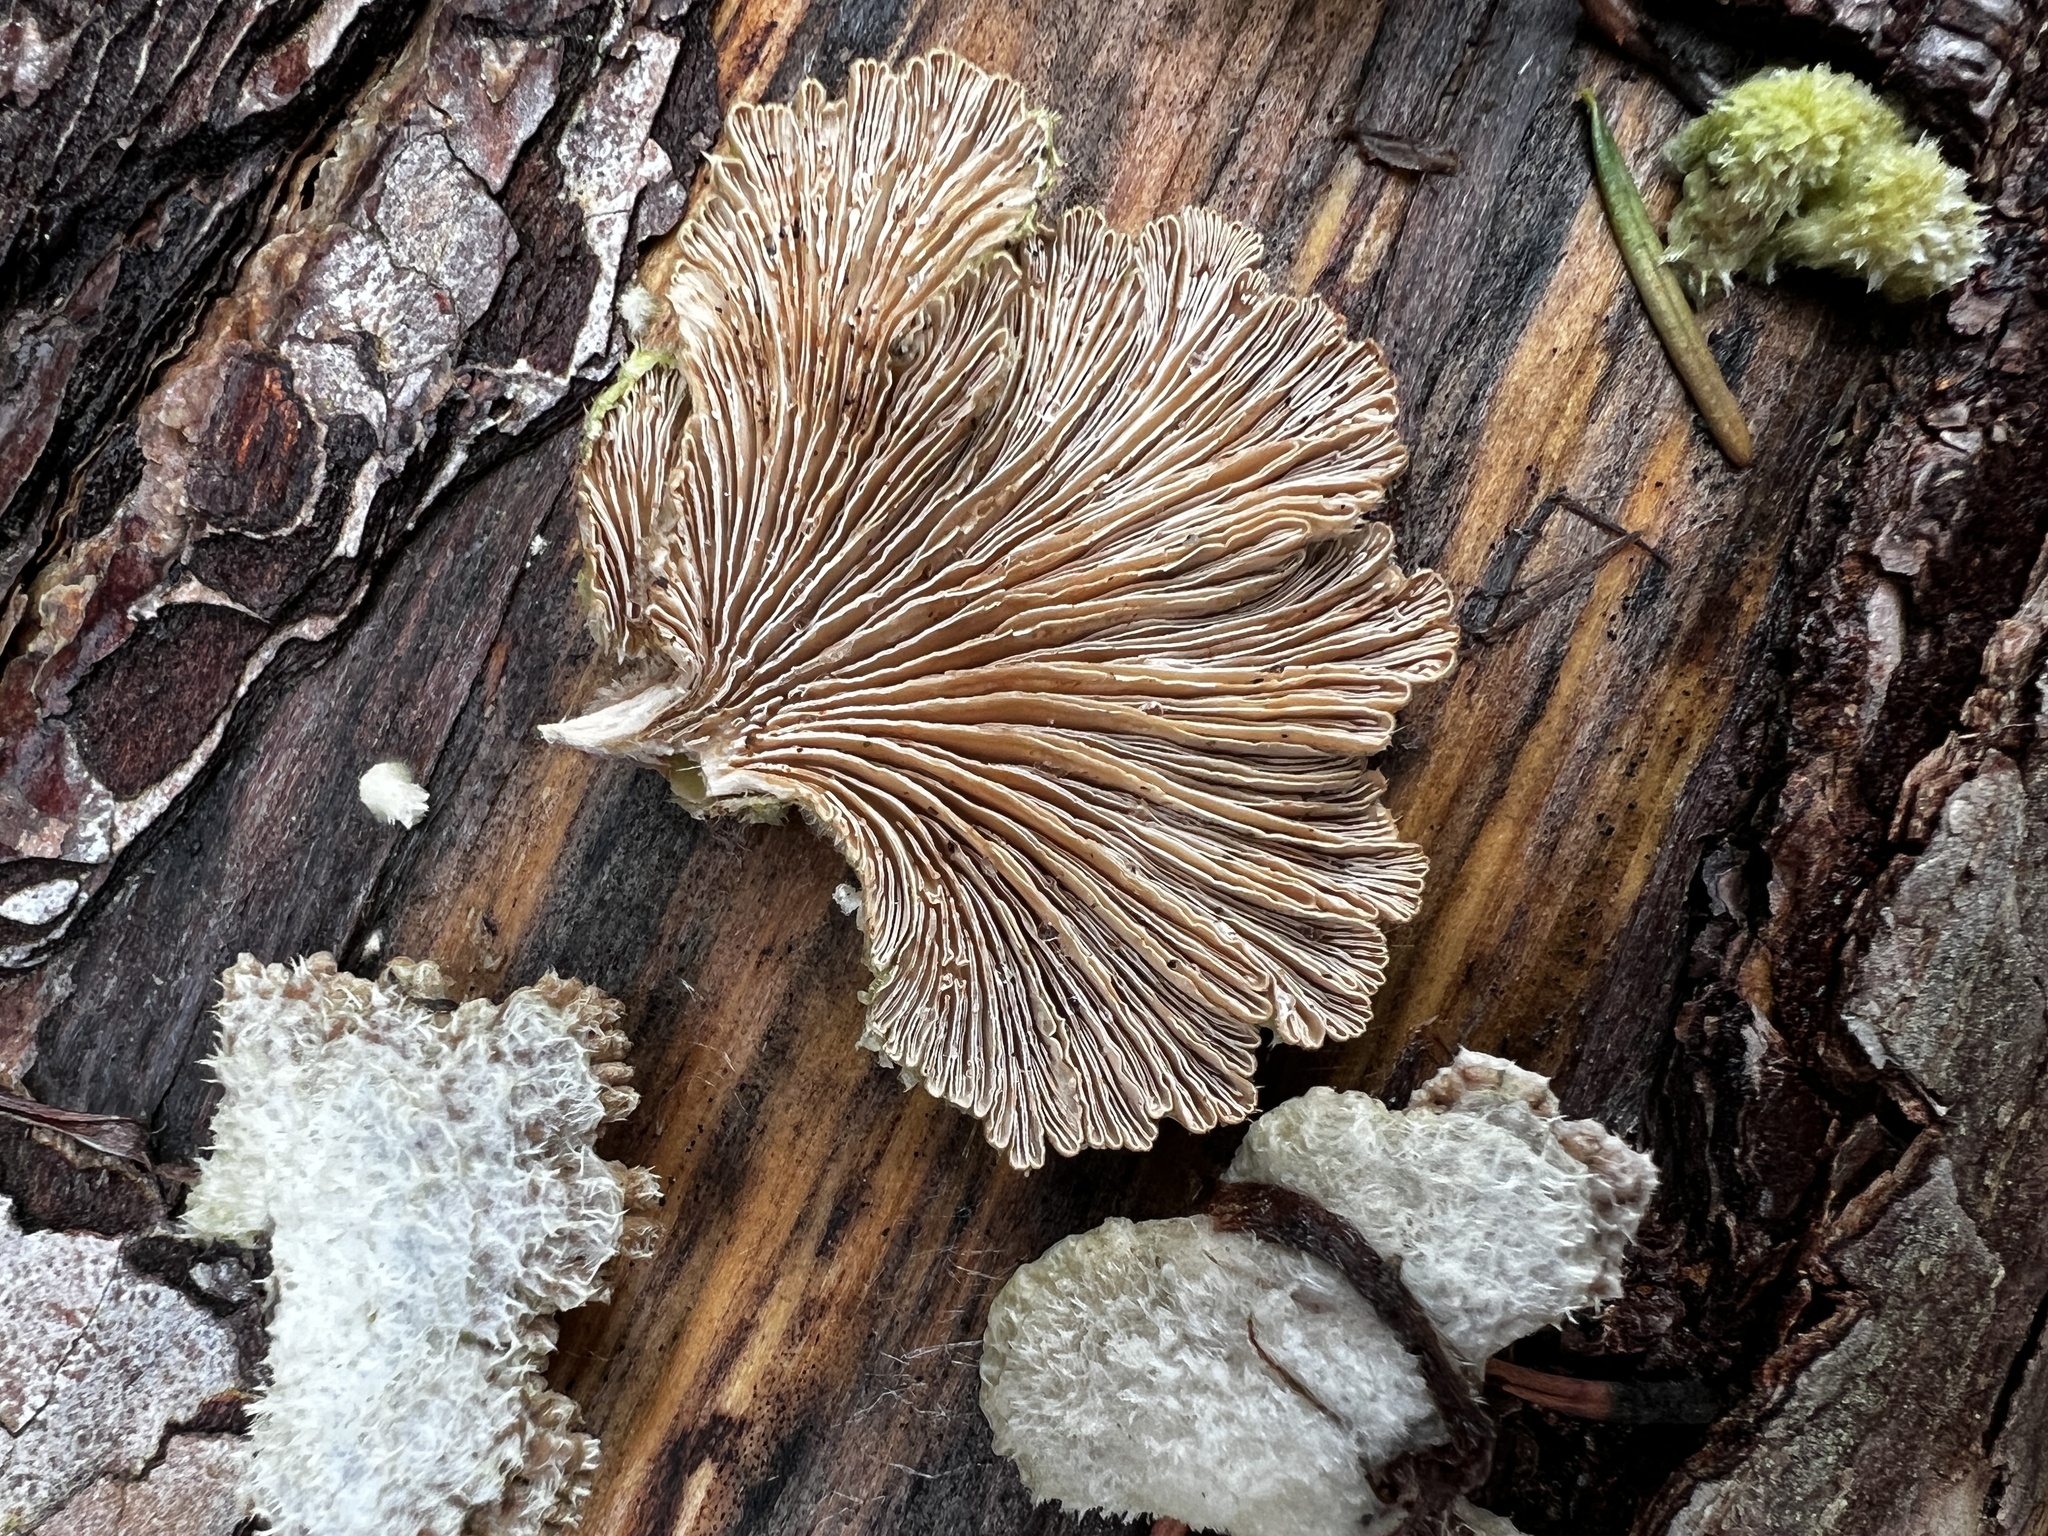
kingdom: Fungi
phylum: Basidiomycota
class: Agaricomycetes
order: Agaricales
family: Schizophyllaceae
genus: Schizophyllum
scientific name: Schizophyllum commune
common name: Common porecrust
